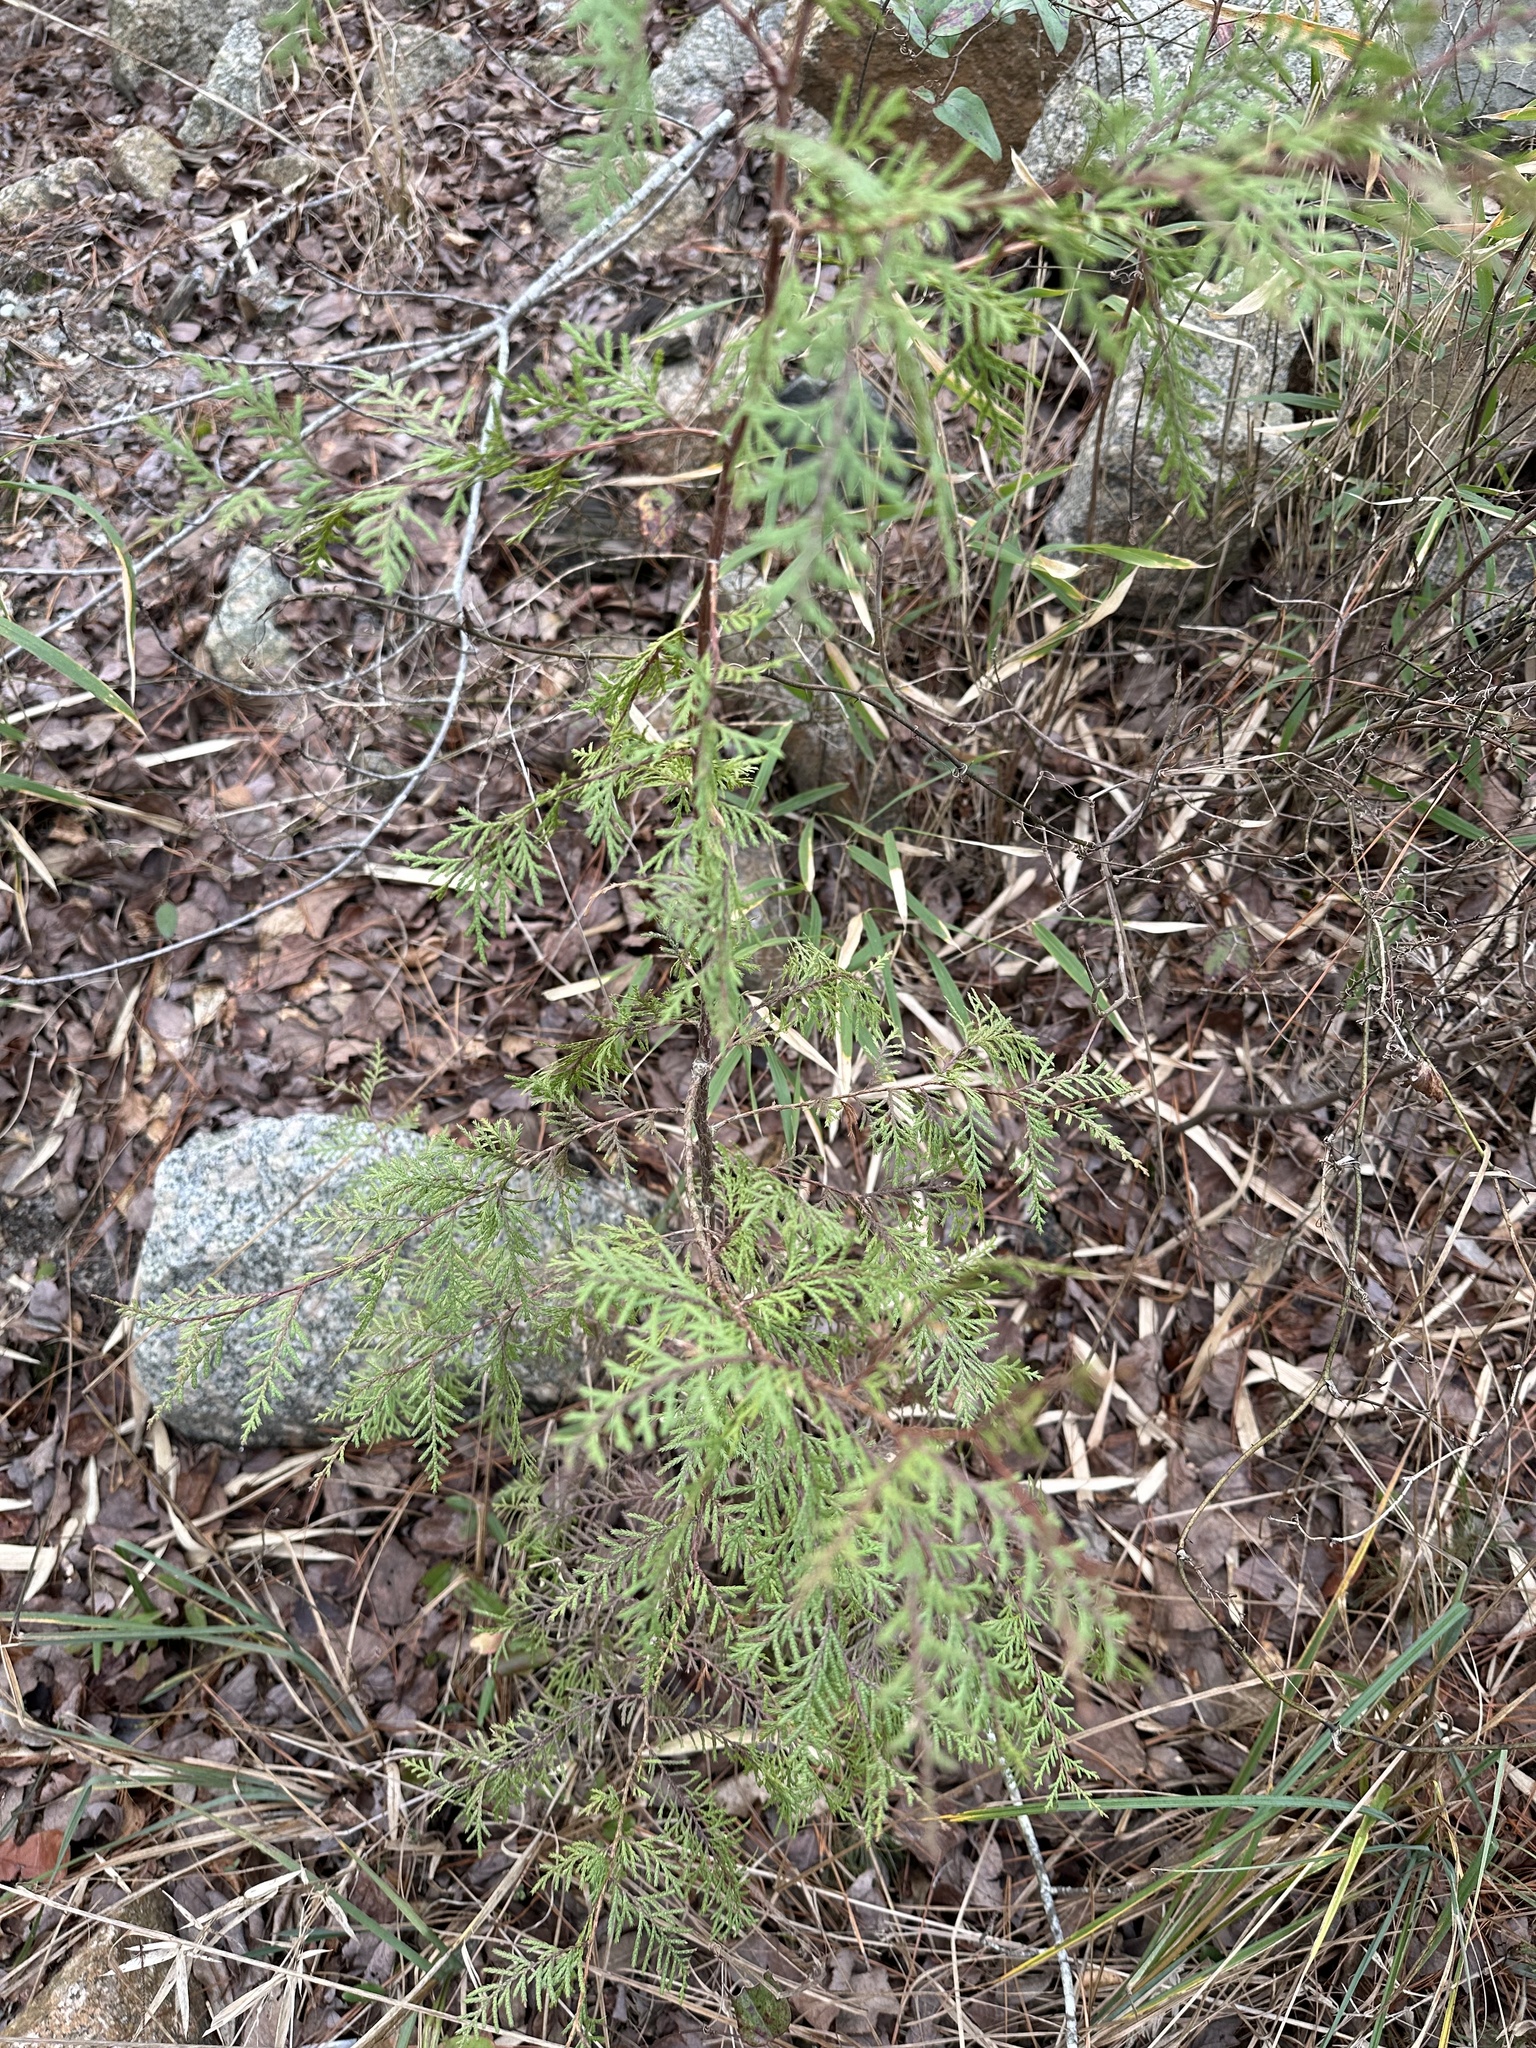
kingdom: Plantae
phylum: Tracheophyta
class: Pinopsida
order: Pinales
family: Cupressaceae
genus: Chamaecyparis
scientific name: Chamaecyparis thyoides
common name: Atlantic white cedar
